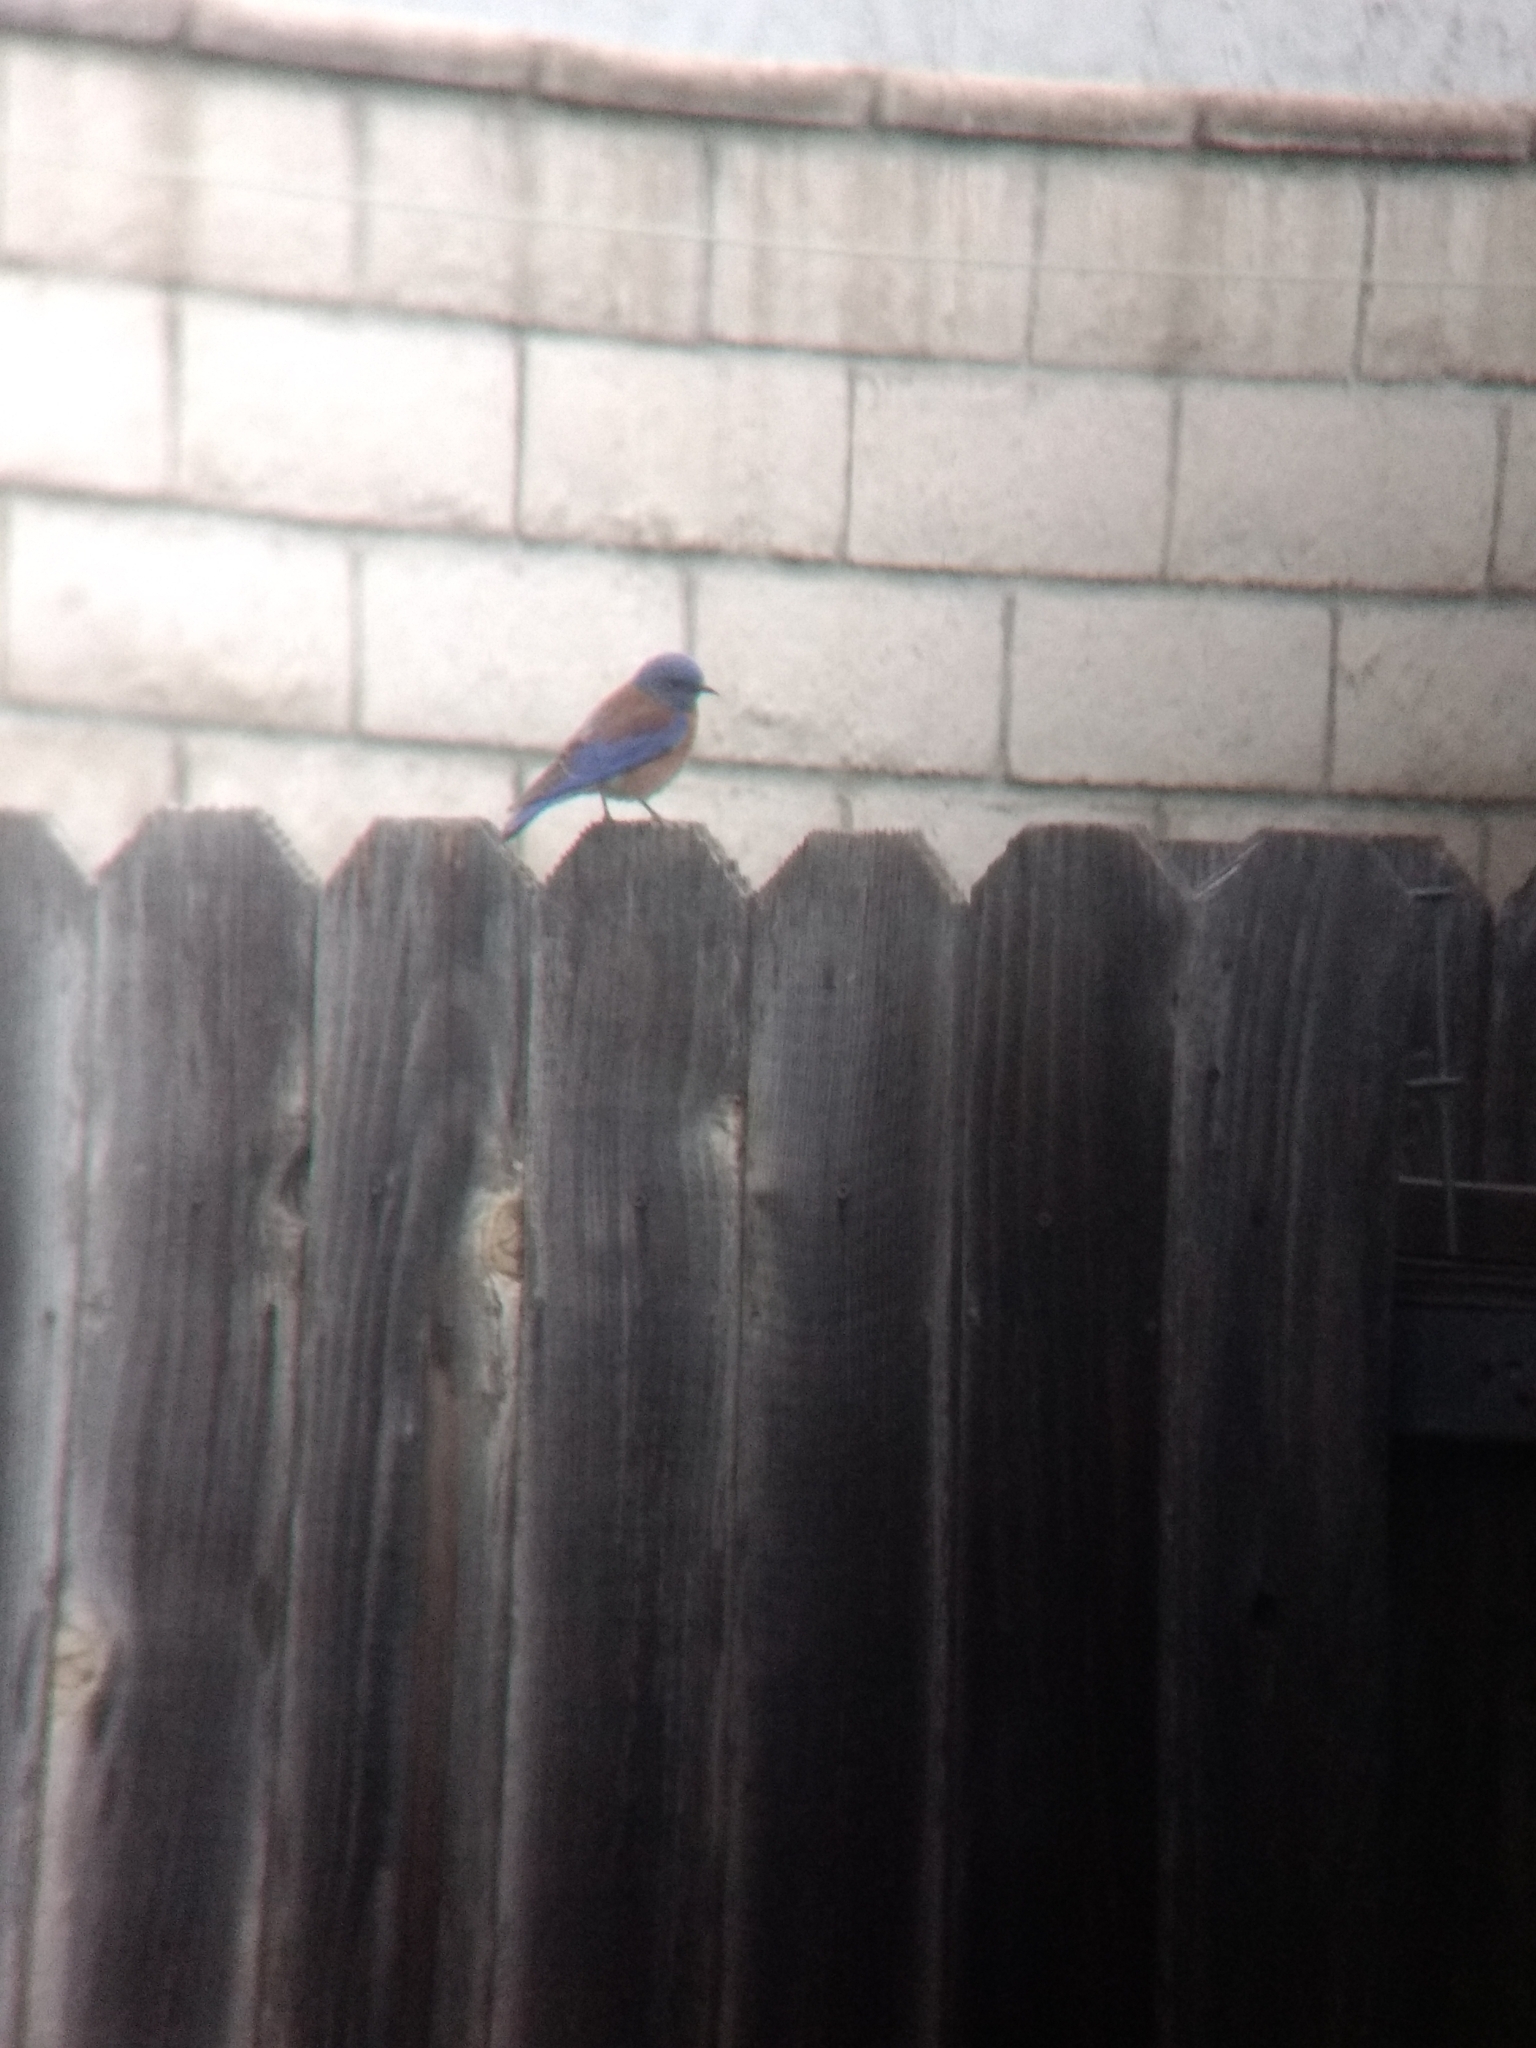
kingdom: Animalia
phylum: Chordata
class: Aves
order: Passeriformes
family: Turdidae
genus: Sialia
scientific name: Sialia mexicana
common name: Western bluebird
